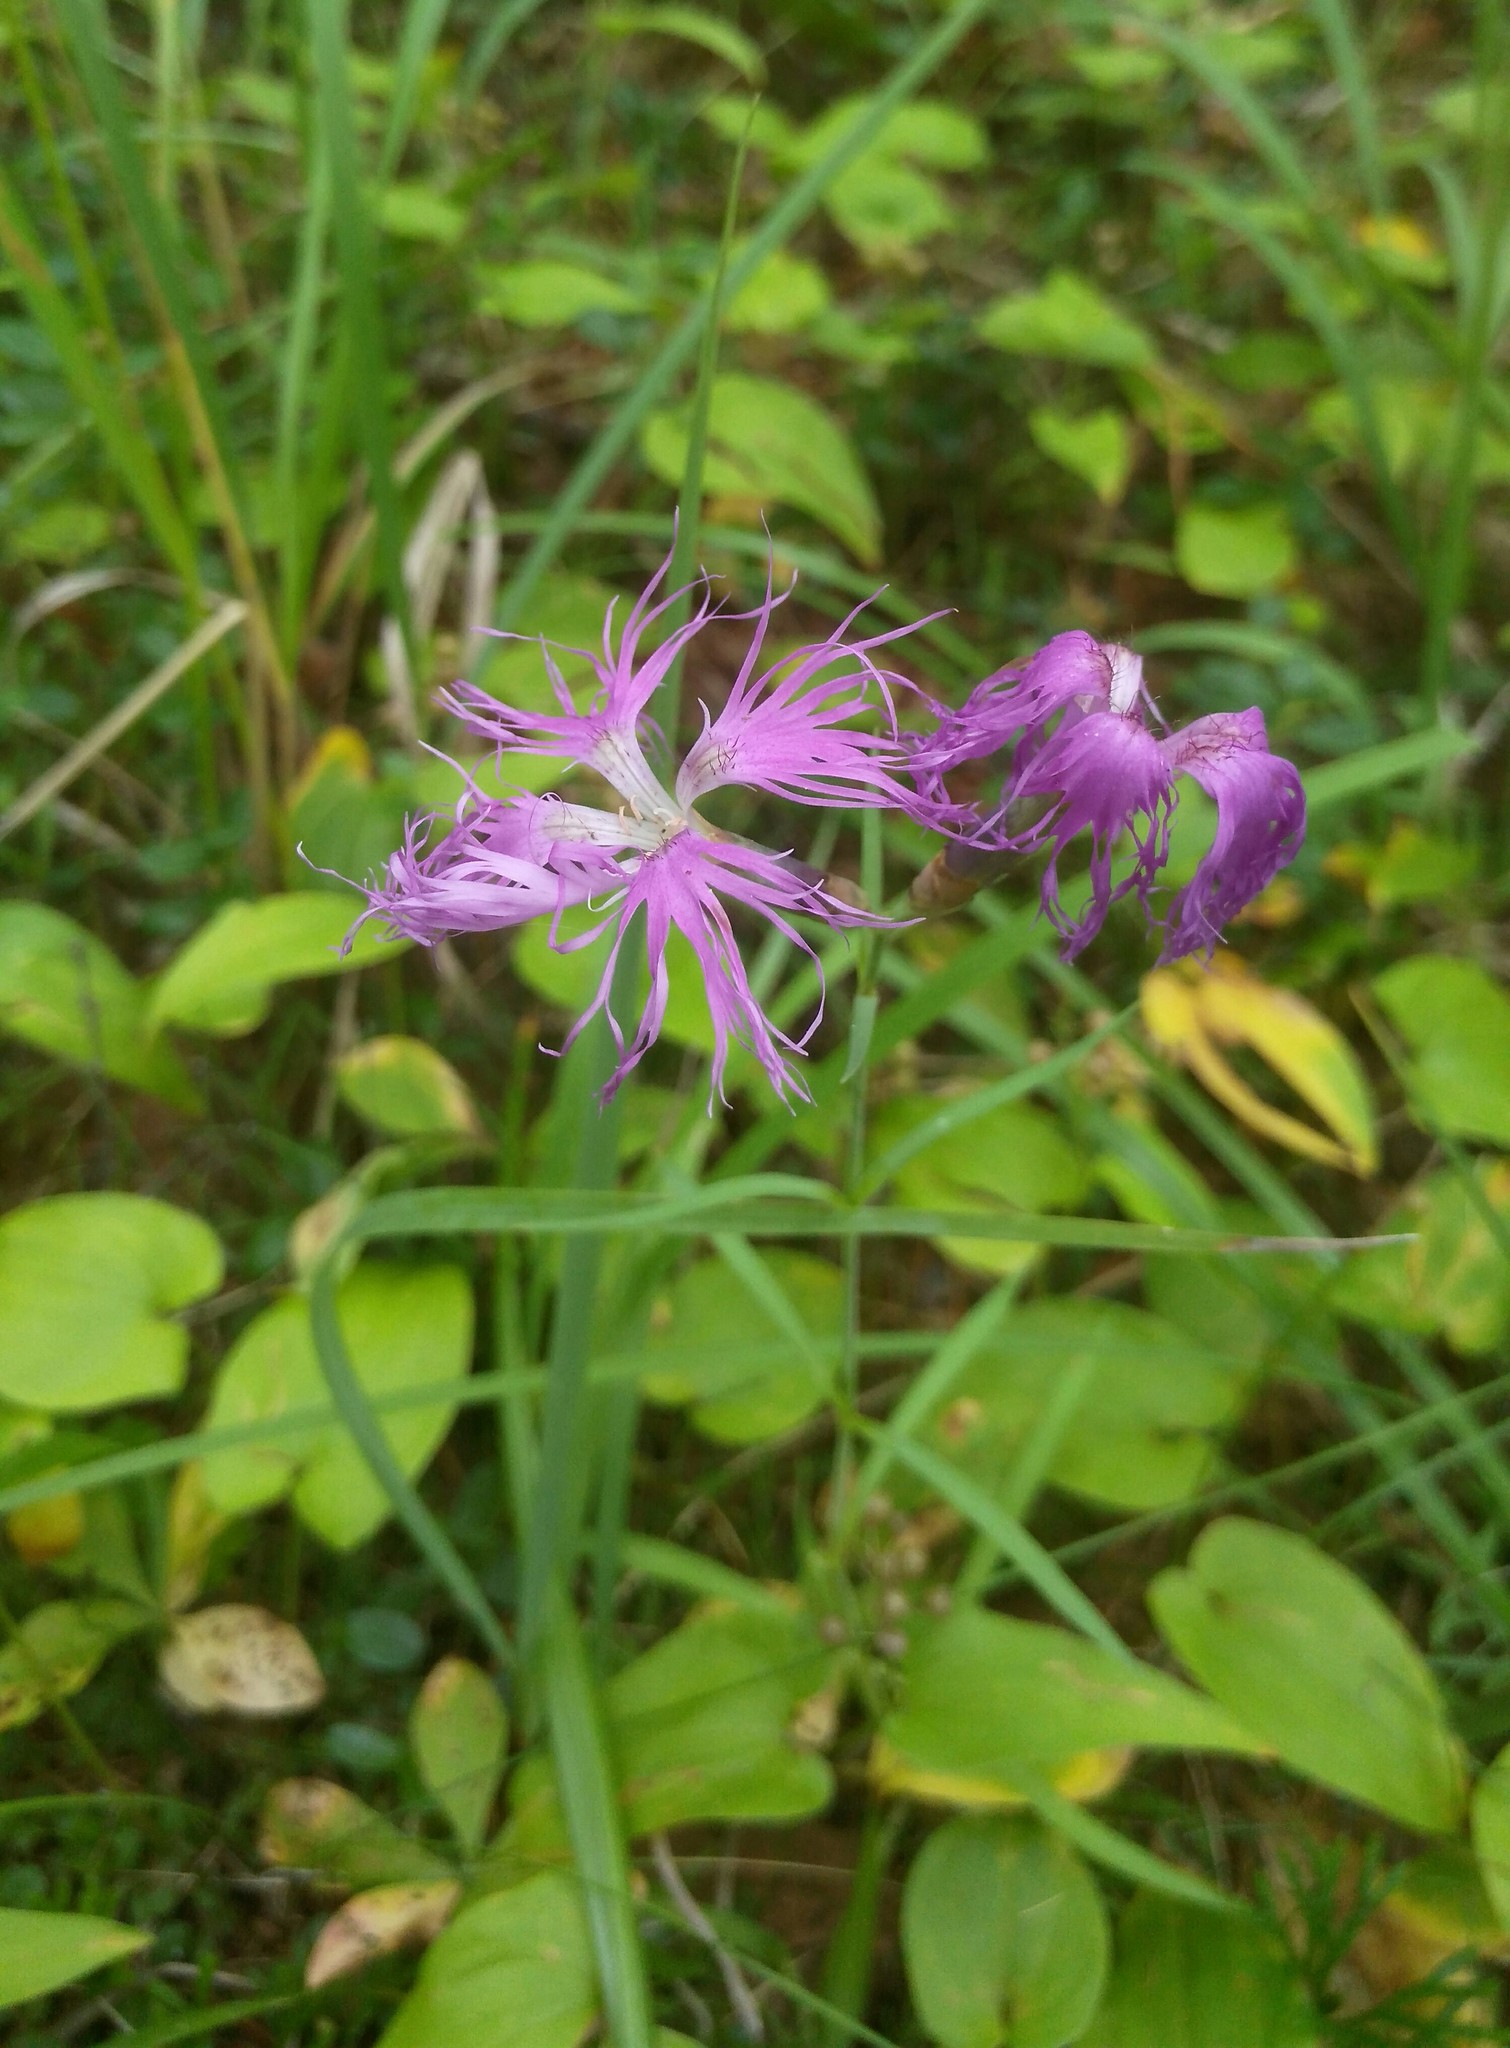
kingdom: Plantae
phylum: Tracheophyta
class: Magnoliopsida
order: Caryophyllales
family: Caryophyllaceae
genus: Dianthus
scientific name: Dianthus superbus
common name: Fringed pink
